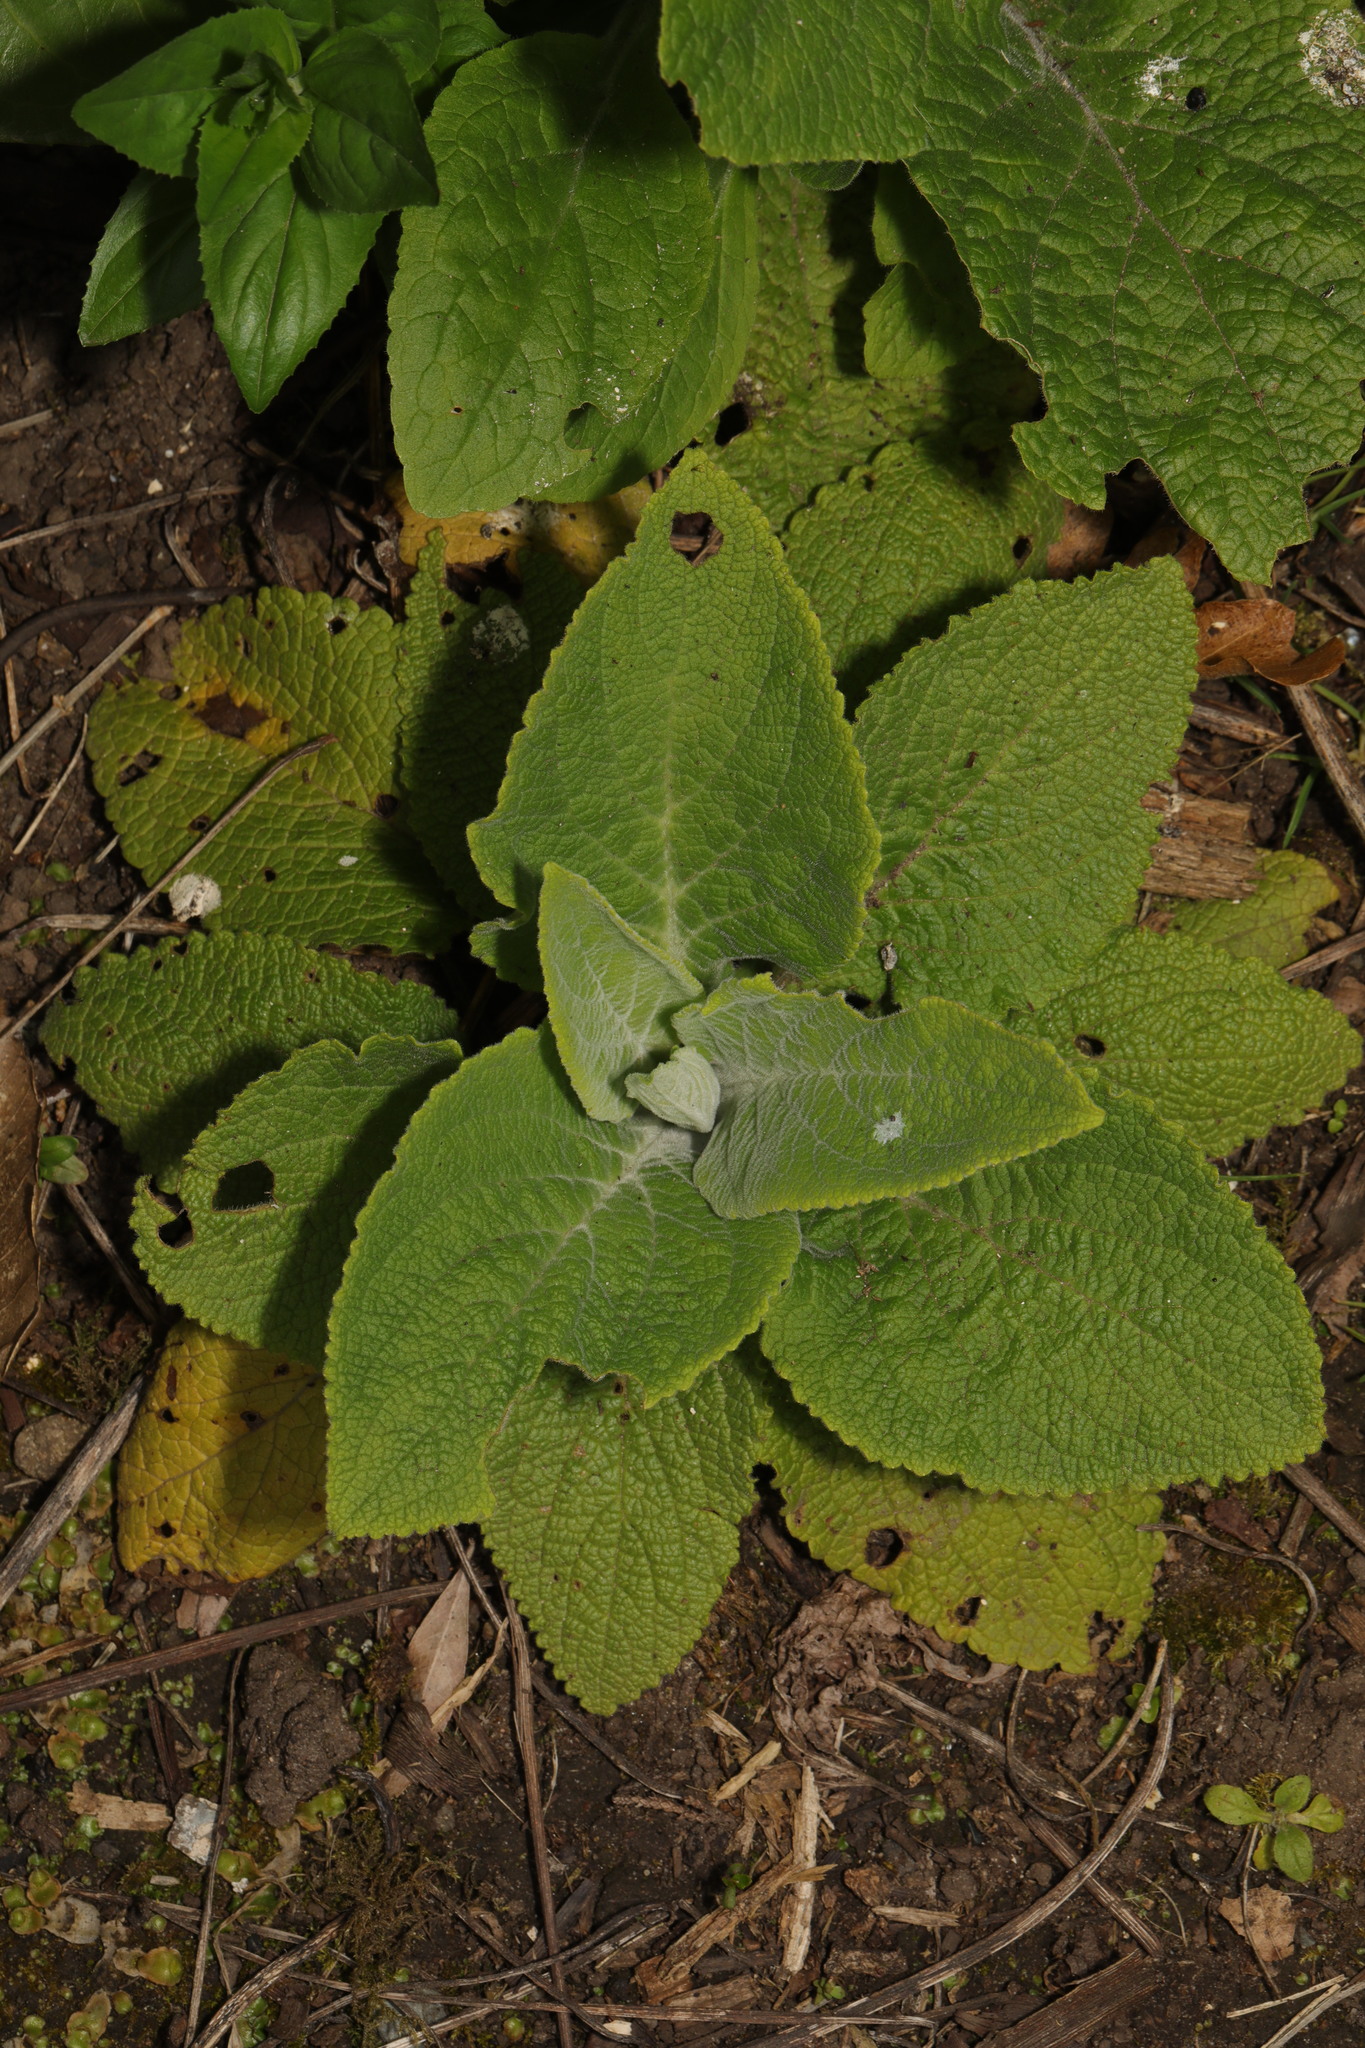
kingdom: Plantae
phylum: Tracheophyta
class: Magnoliopsida
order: Lamiales
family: Plantaginaceae
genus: Digitalis
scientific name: Digitalis purpurea
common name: Foxglove
